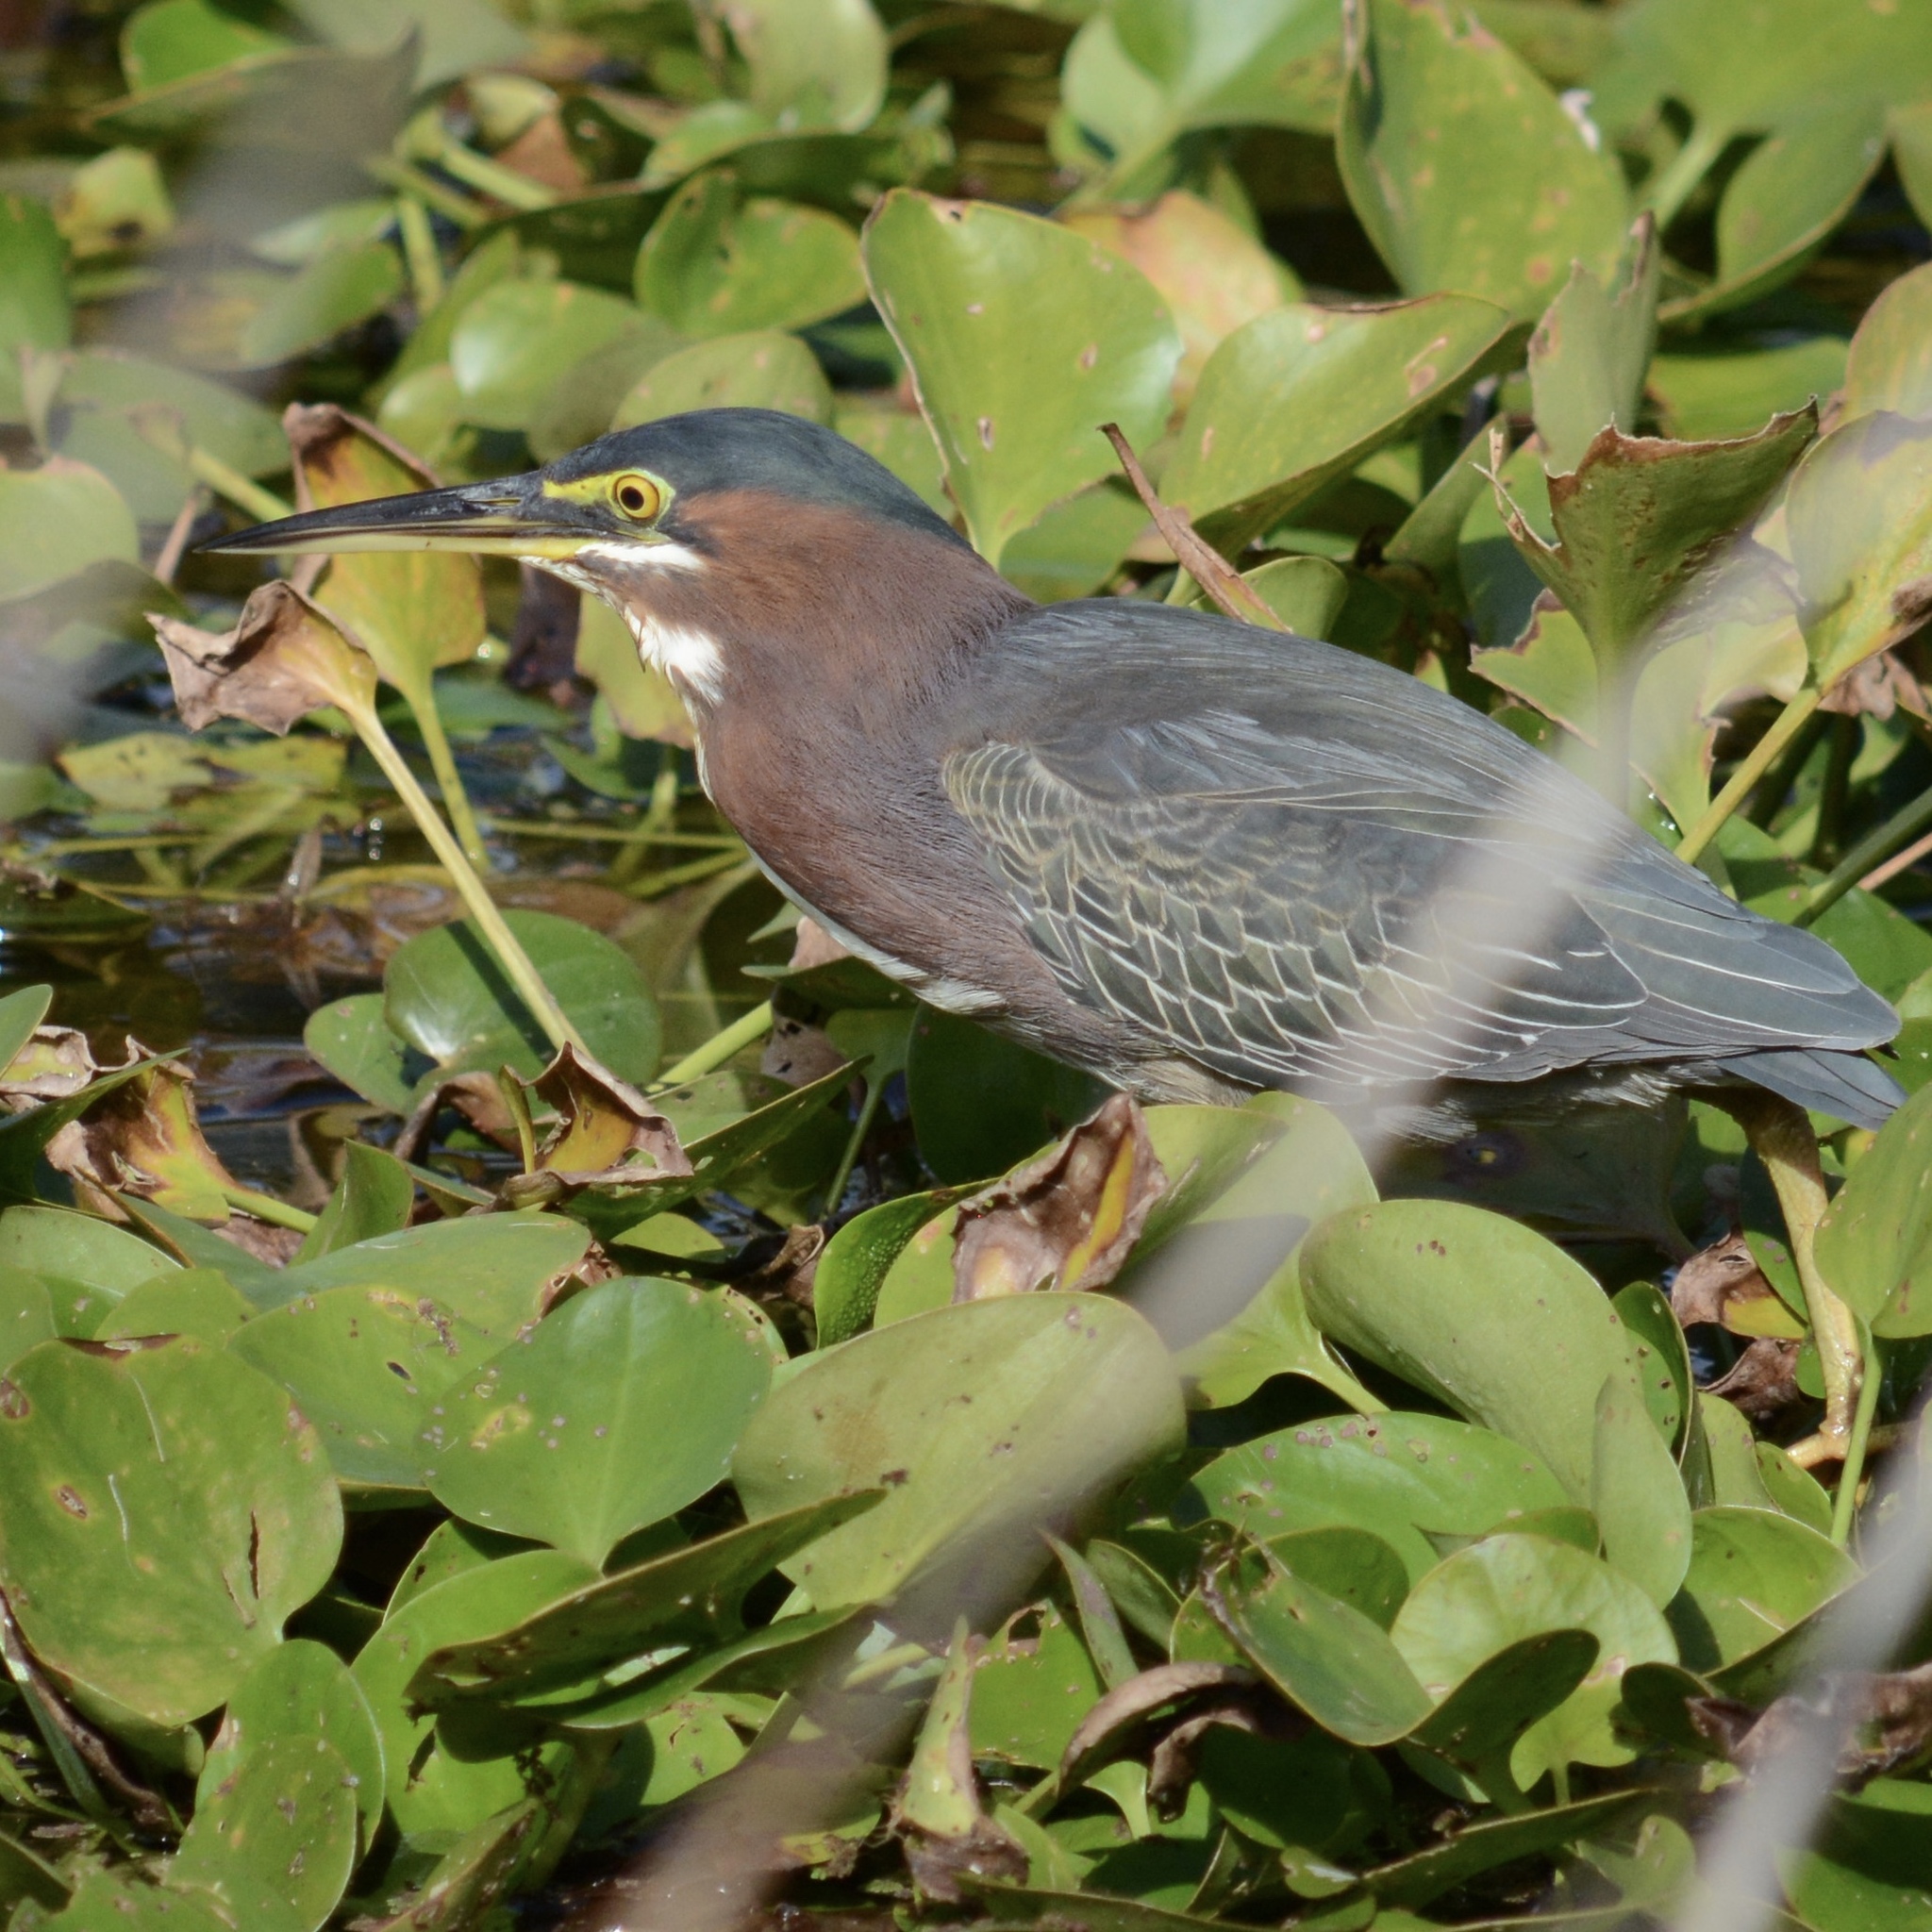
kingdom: Animalia
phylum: Chordata
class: Aves
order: Pelecaniformes
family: Ardeidae
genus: Butorides
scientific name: Butorides virescens
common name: Green heron
